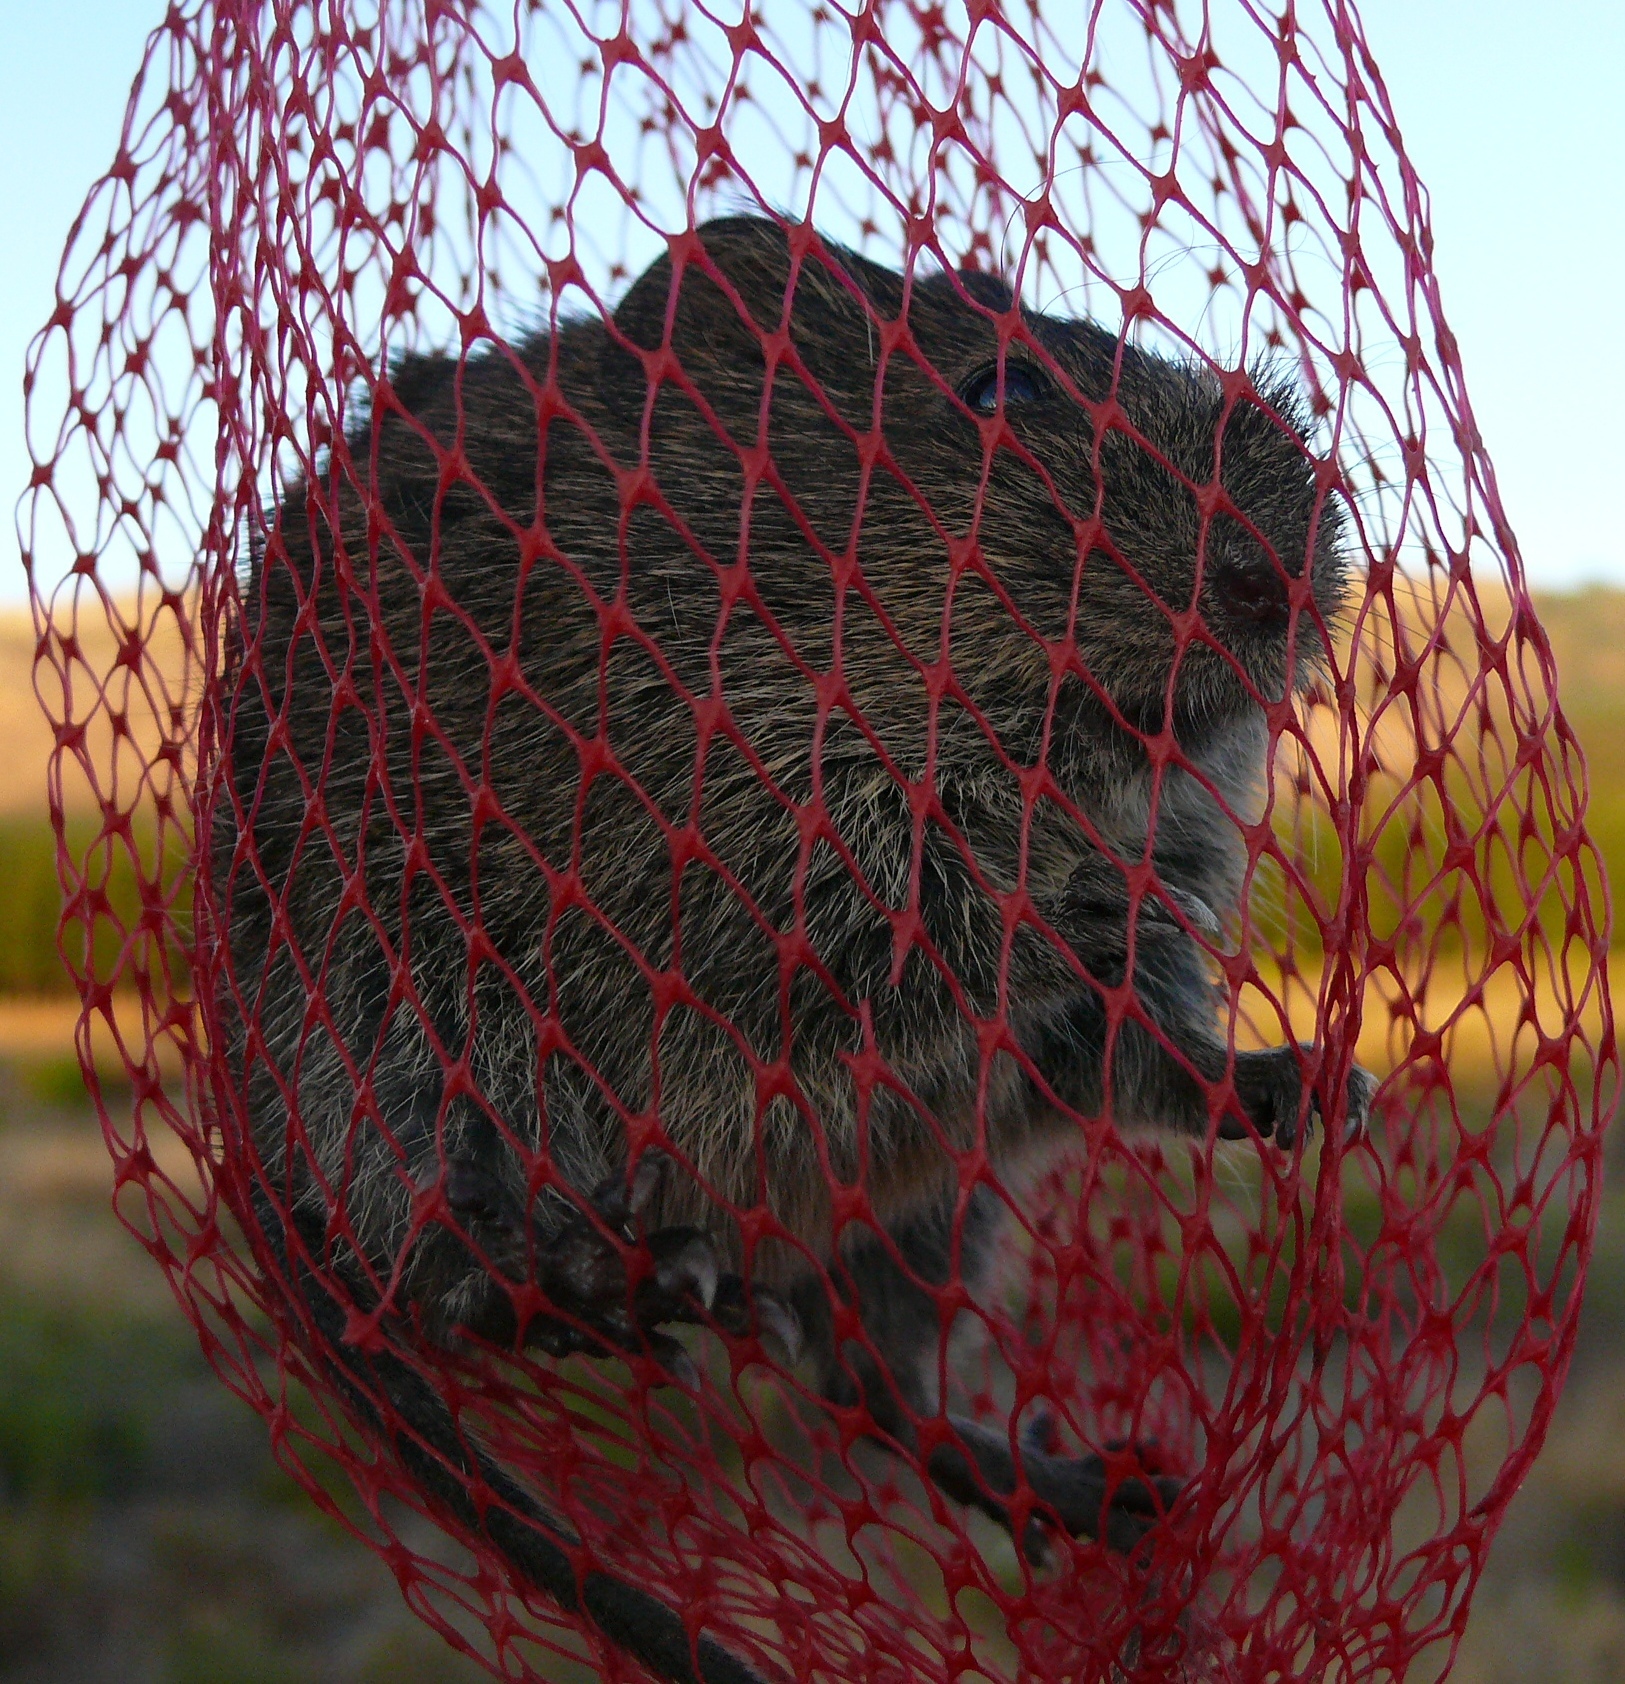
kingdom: Animalia
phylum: Chordata
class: Mammalia
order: Rodentia
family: Muridae
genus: Otomys
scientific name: Otomys irroratus
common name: Southern african vlei rat
